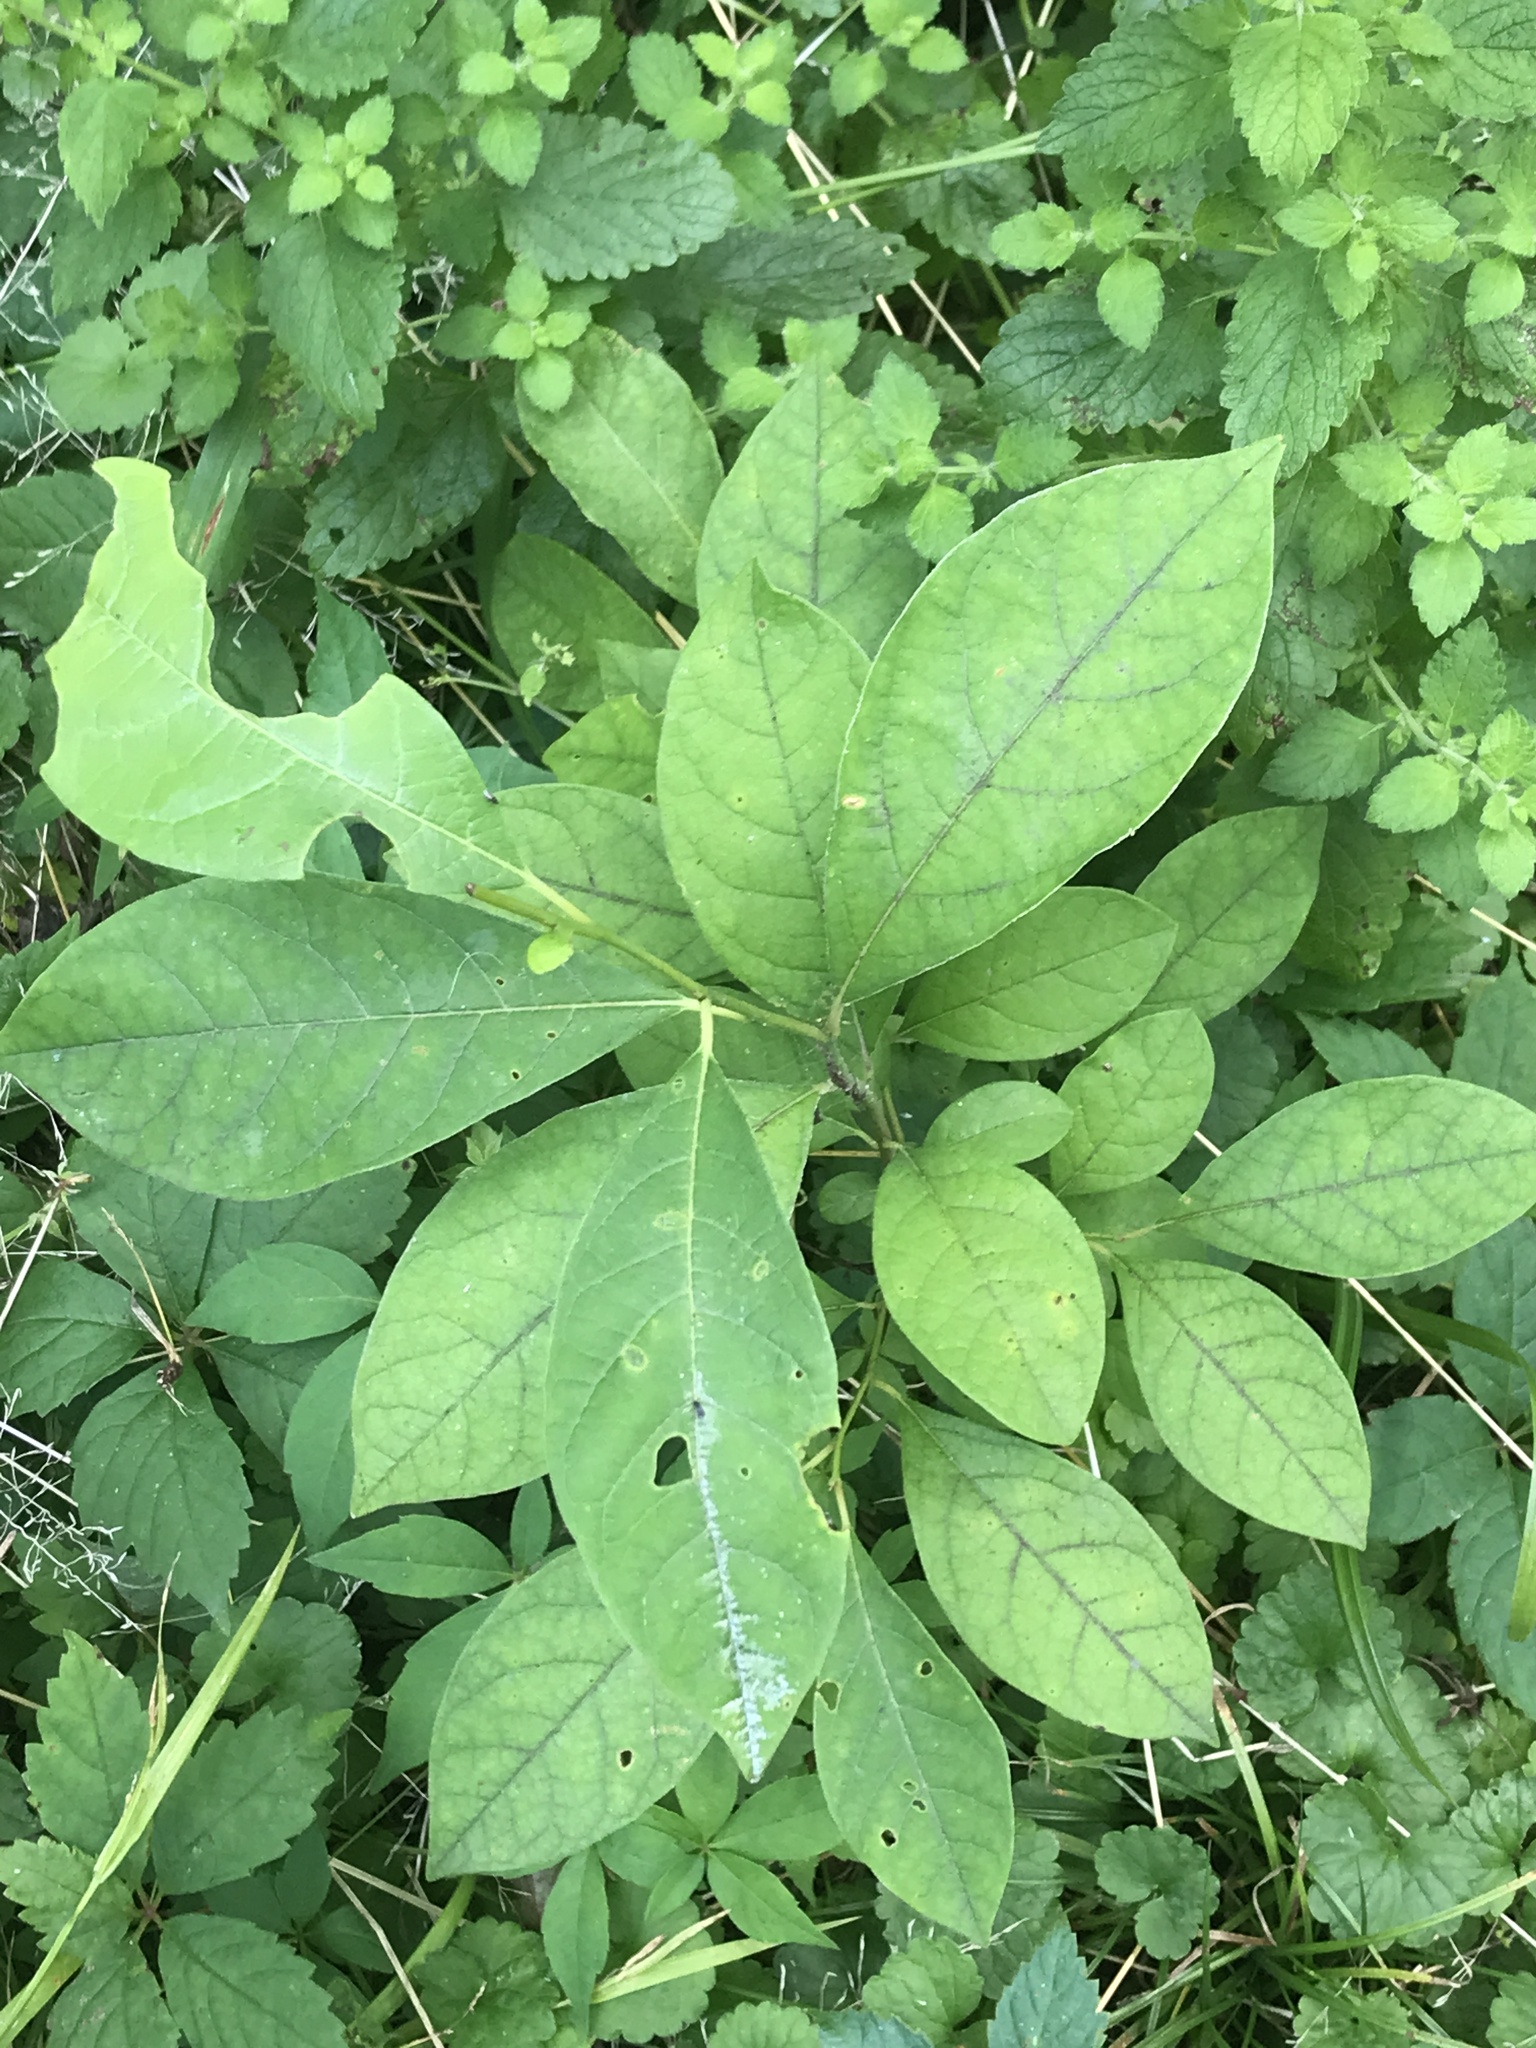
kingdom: Plantae
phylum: Tracheophyta
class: Magnoliopsida
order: Laurales
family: Lauraceae
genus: Lindera
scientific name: Lindera benzoin
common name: Spicebush
